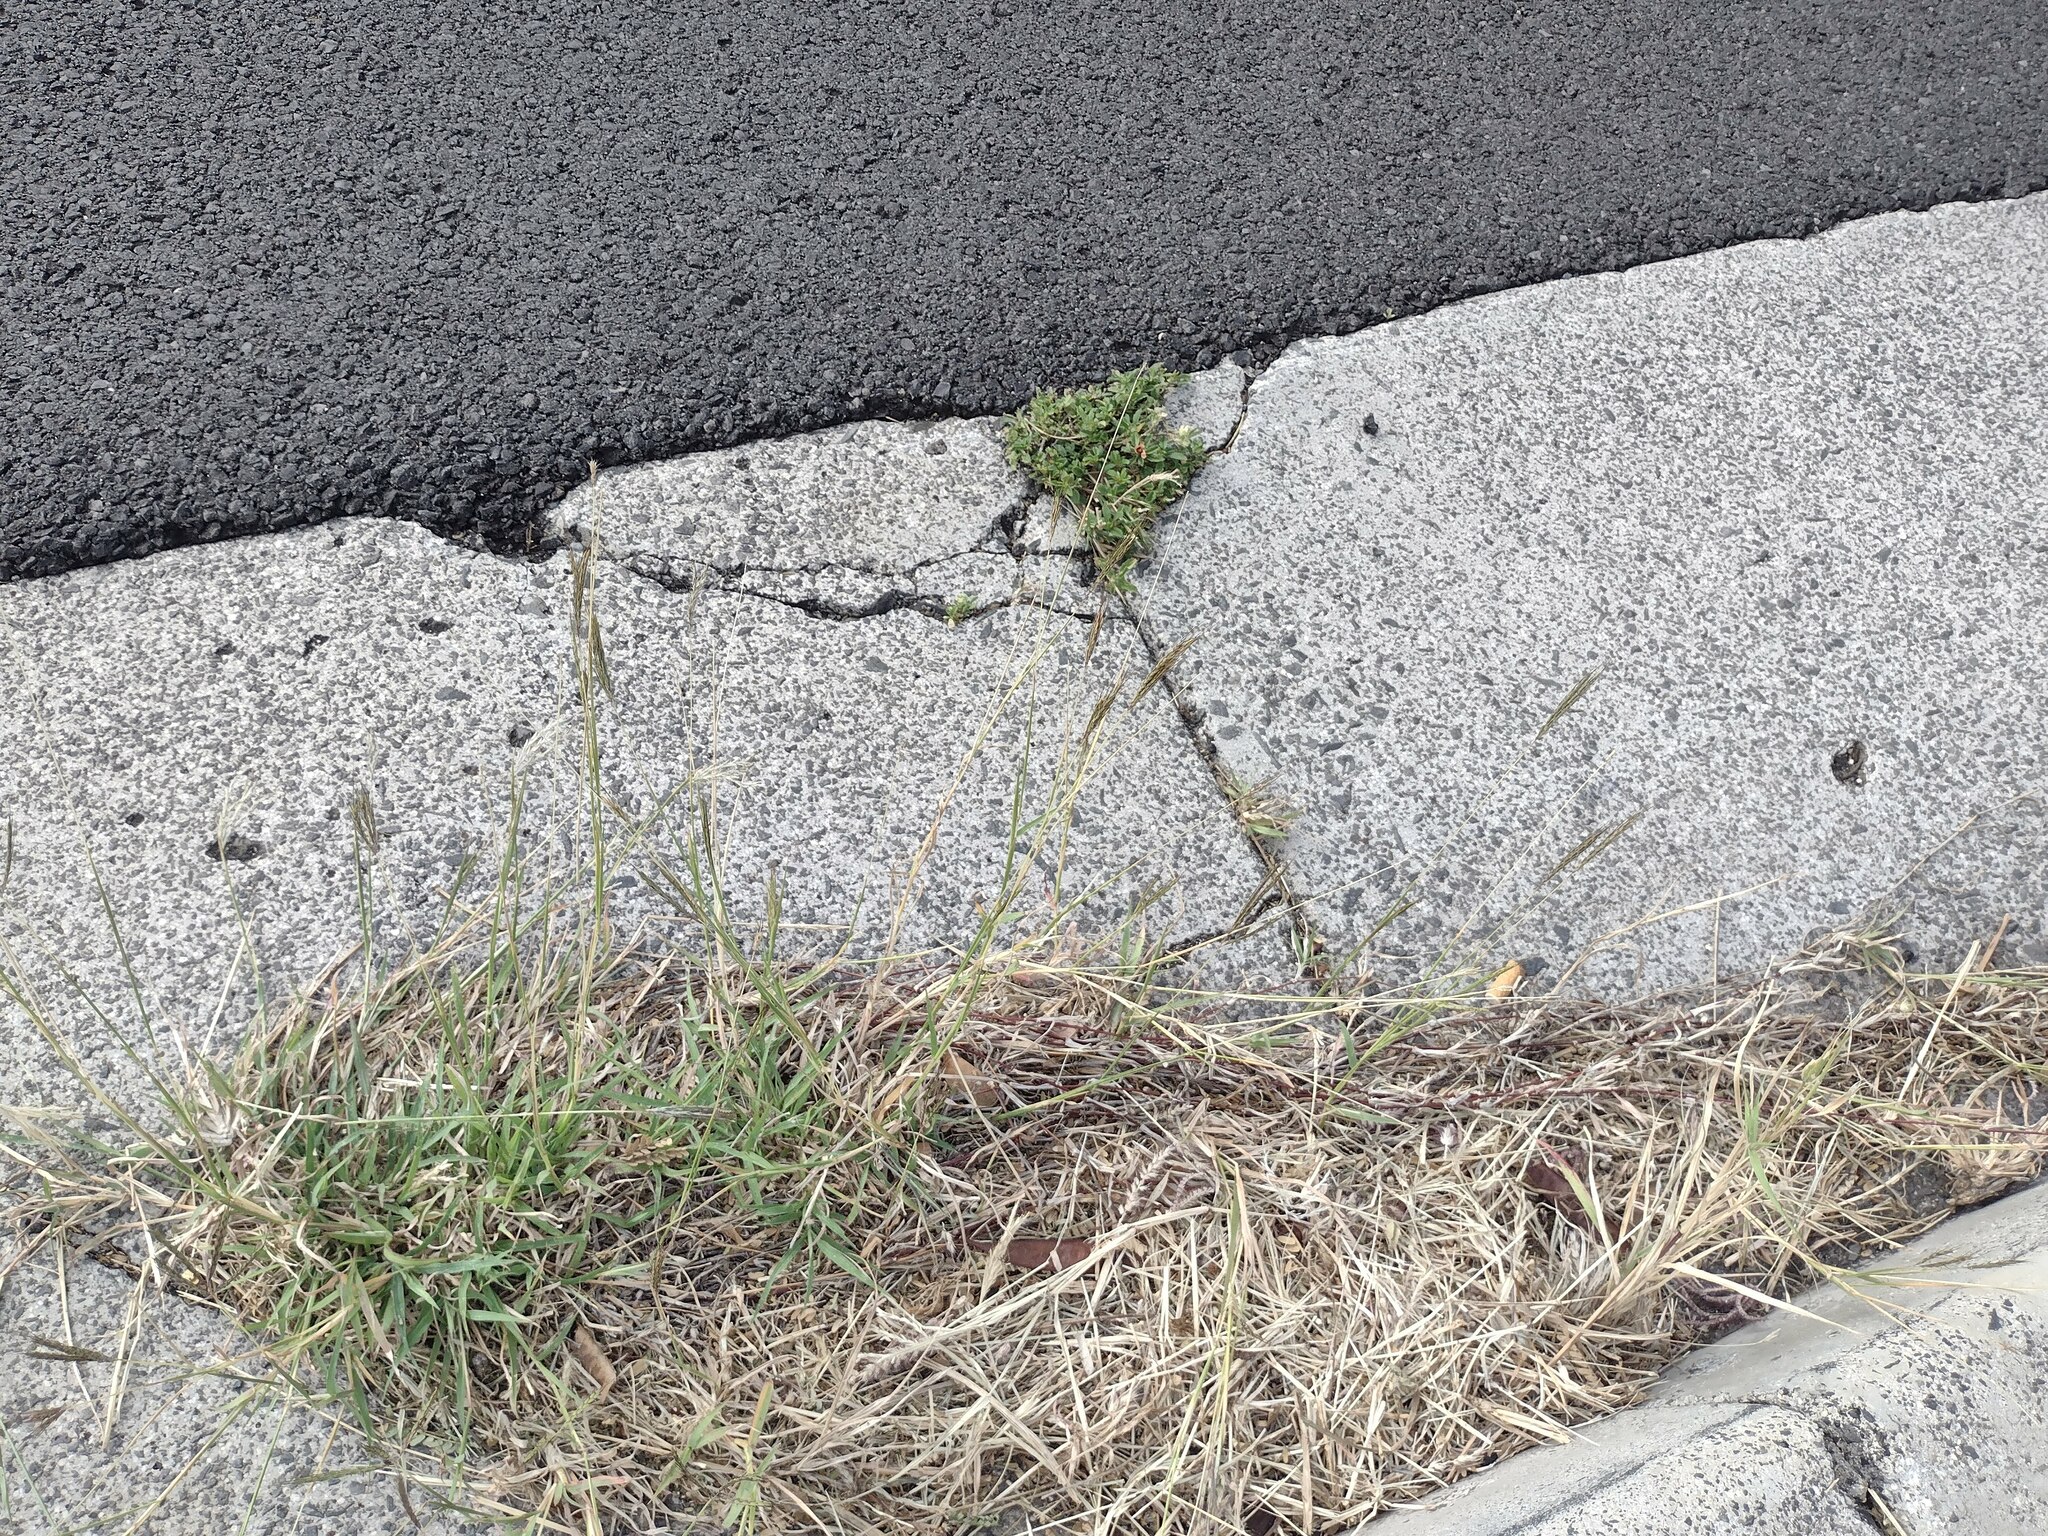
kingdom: Plantae
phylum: Tracheophyta
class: Liliopsida
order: Poales
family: Poaceae
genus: Bothriochloa
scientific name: Bothriochloa pertusa
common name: Pitted beardgrass
